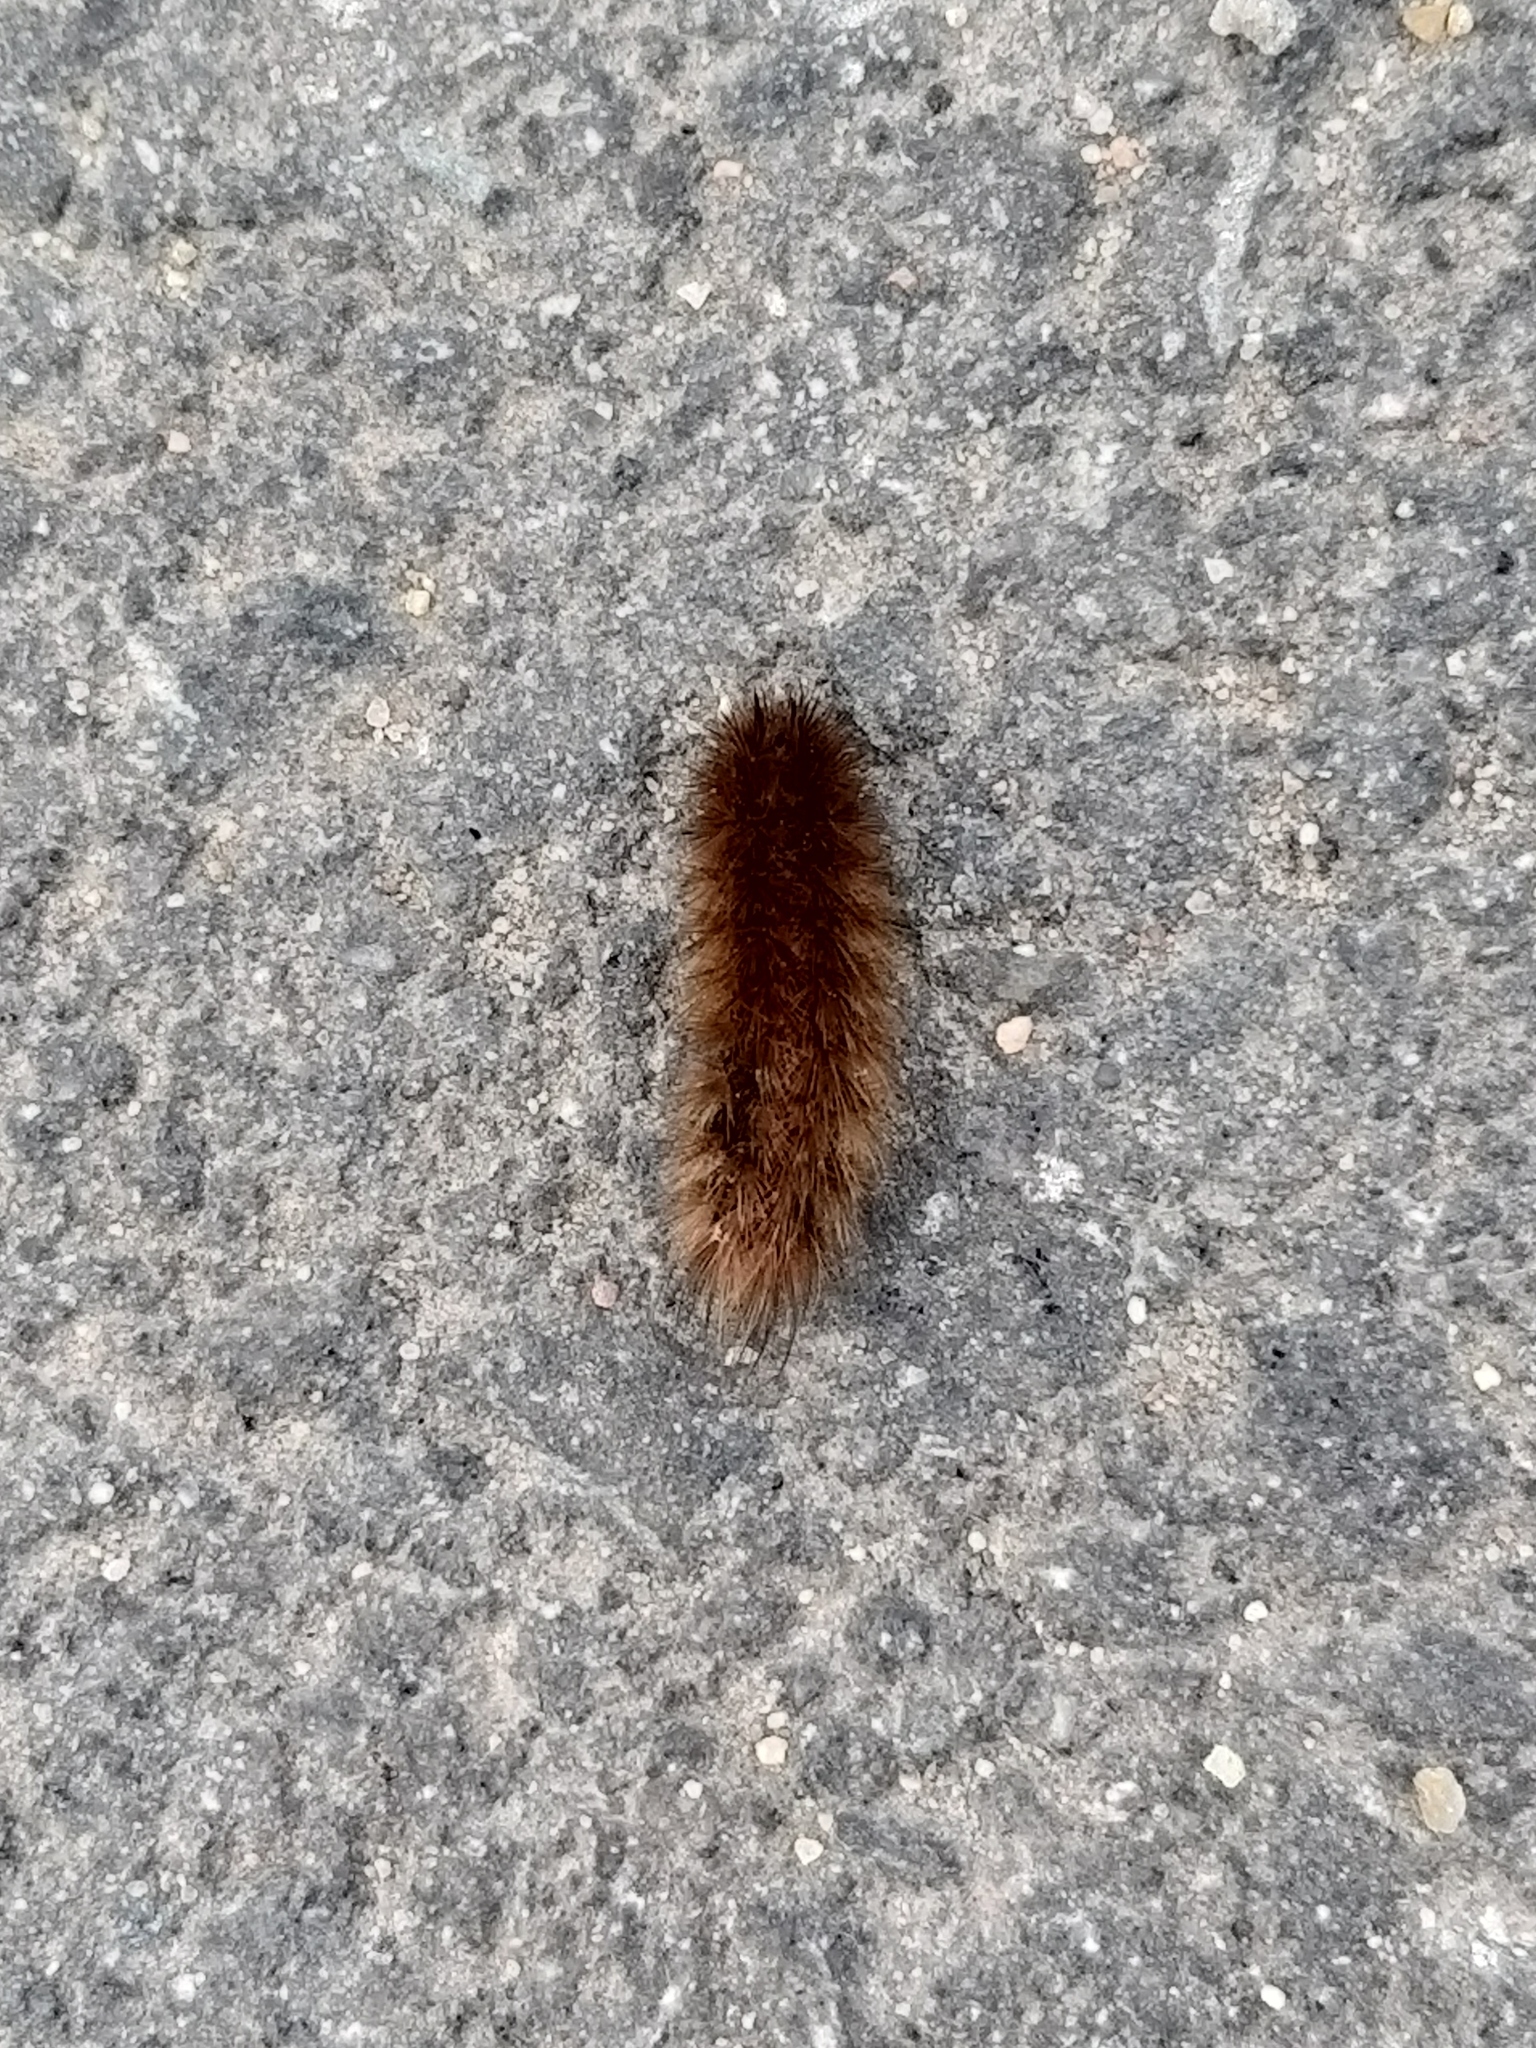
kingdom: Animalia
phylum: Arthropoda
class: Insecta
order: Lepidoptera
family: Erebidae
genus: Phragmatobia
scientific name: Phragmatobia fuliginosa
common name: Ruby tiger
